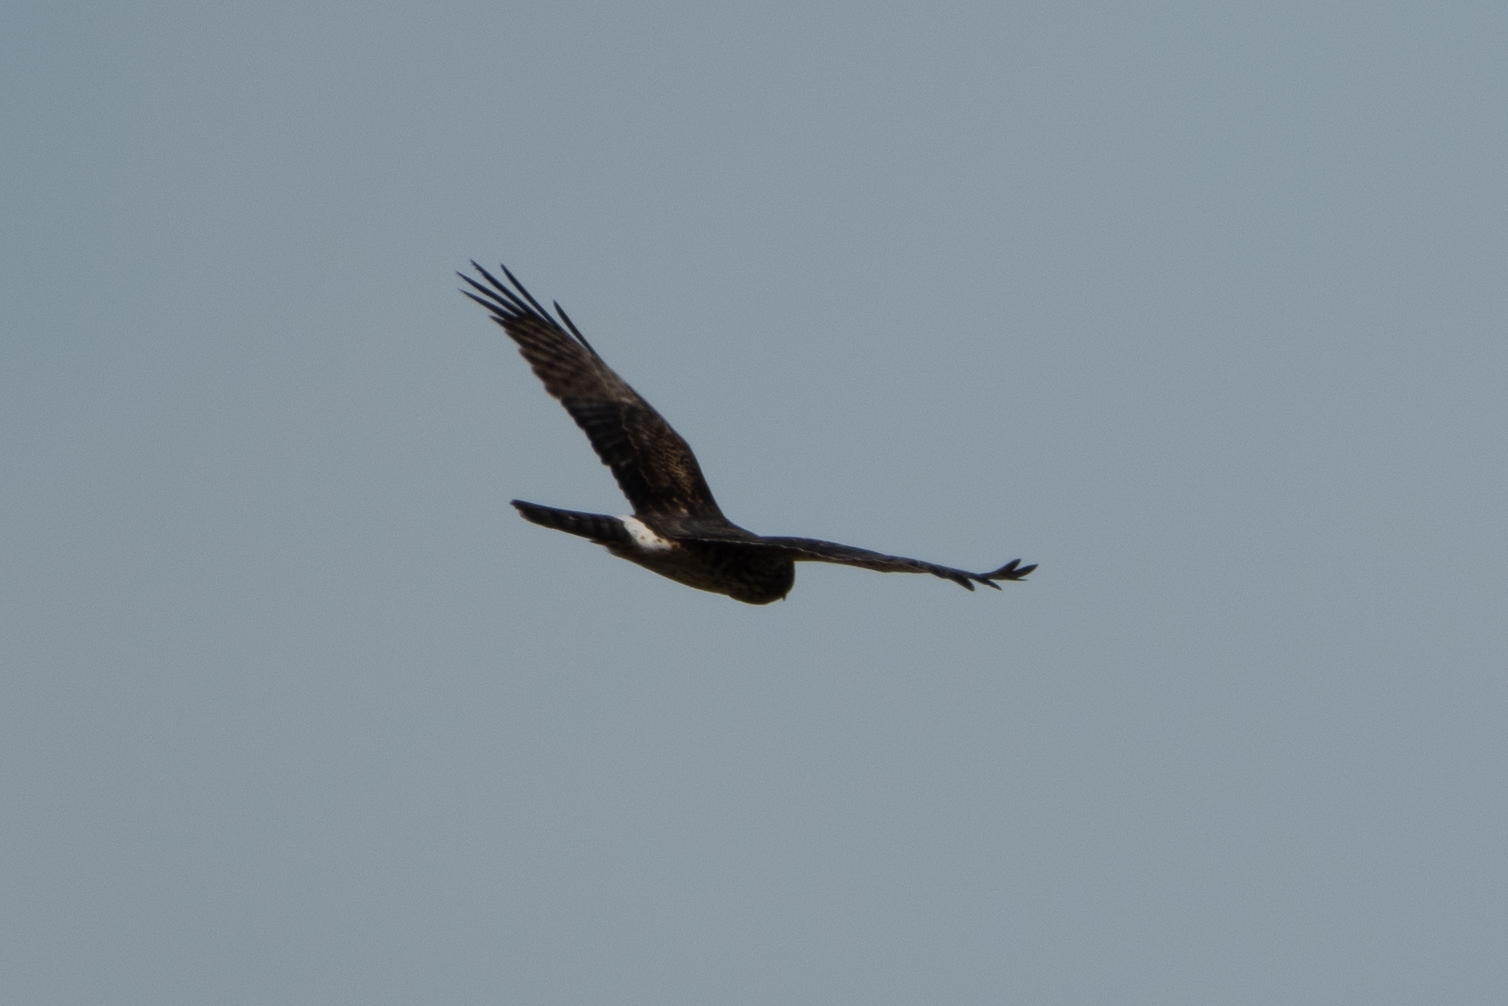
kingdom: Animalia
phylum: Chordata
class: Aves
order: Accipitriformes
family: Accipitridae
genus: Circus
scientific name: Circus cyaneus
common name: Hen harrier
